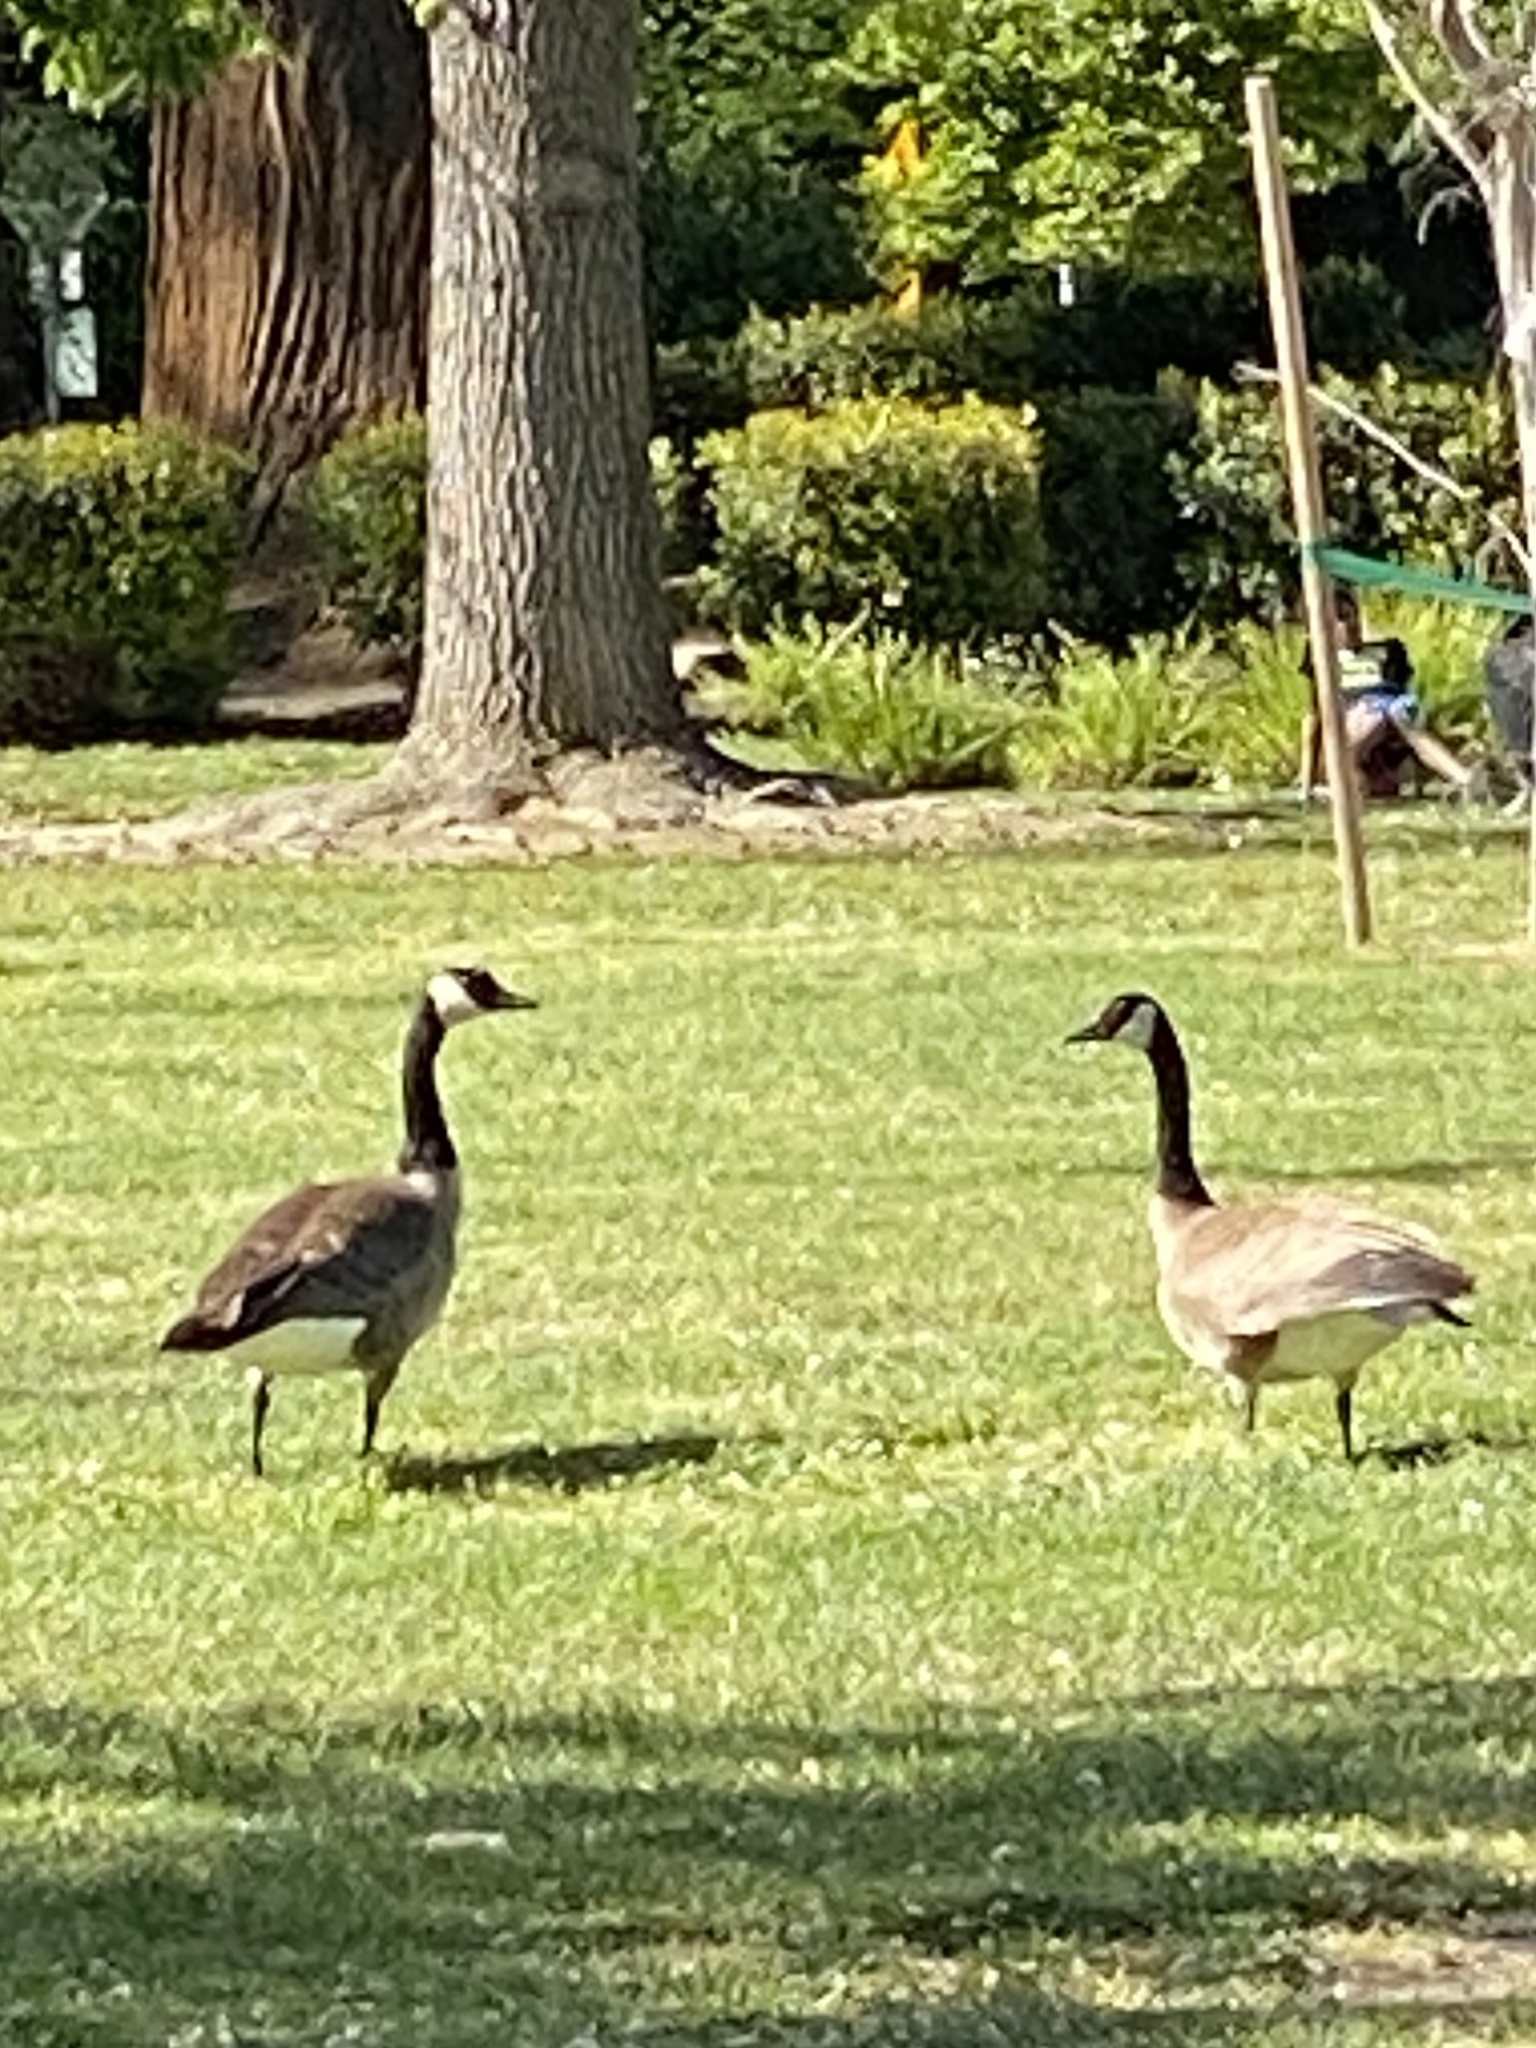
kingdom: Animalia
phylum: Chordata
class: Aves
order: Anseriformes
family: Anatidae
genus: Branta
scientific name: Branta canadensis
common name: Canada goose
